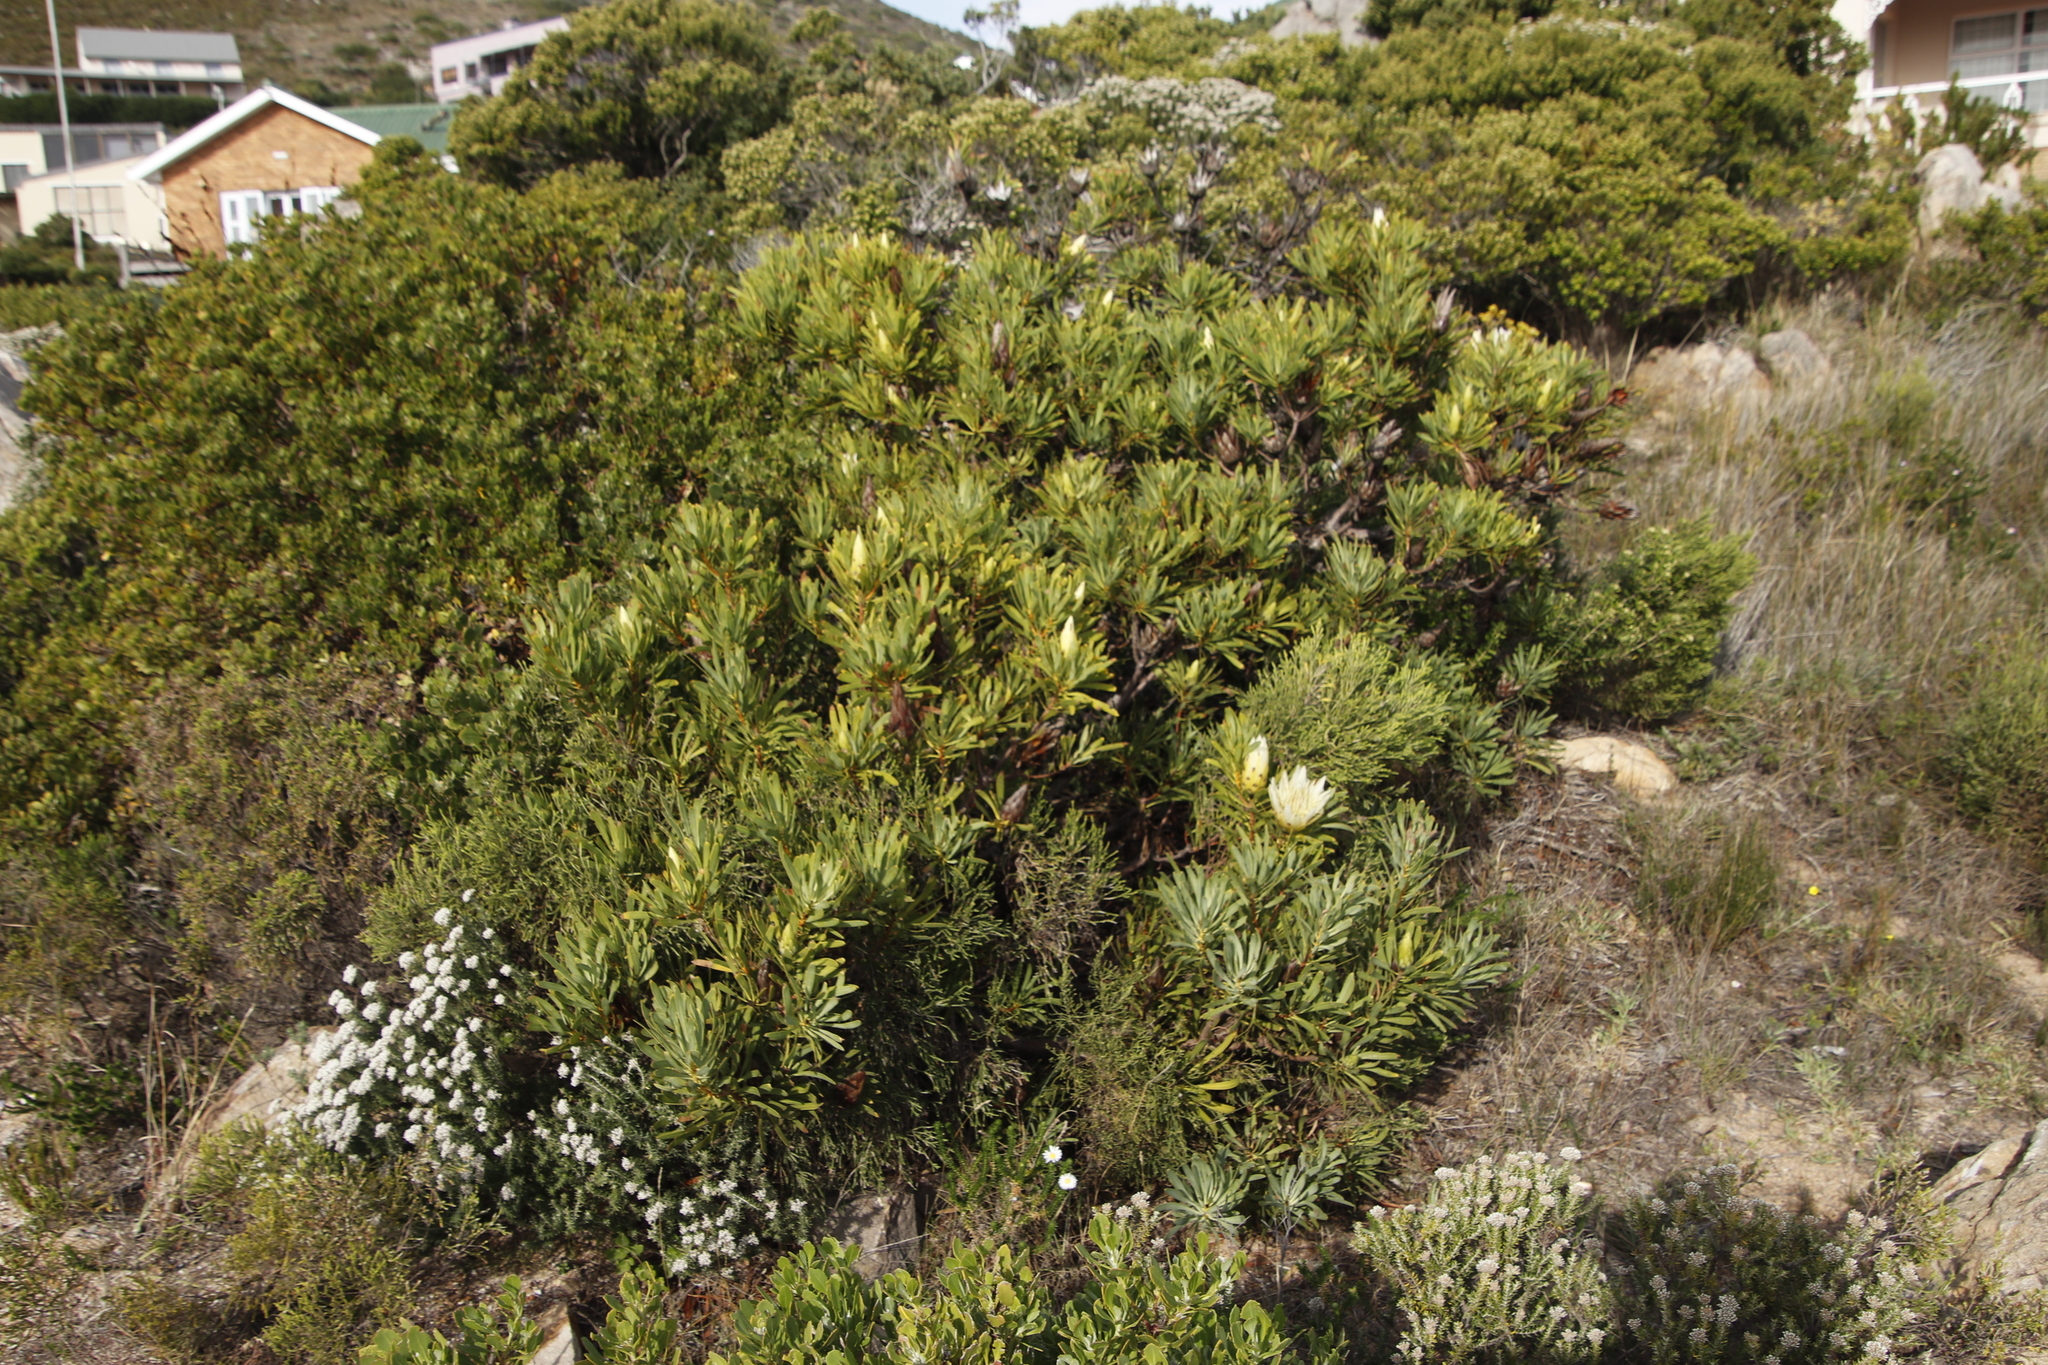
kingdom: Plantae
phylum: Tracheophyta
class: Magnoliopsida
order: Proteales
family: Proteaceae
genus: Protea
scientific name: Protea repens
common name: Sugarbush
